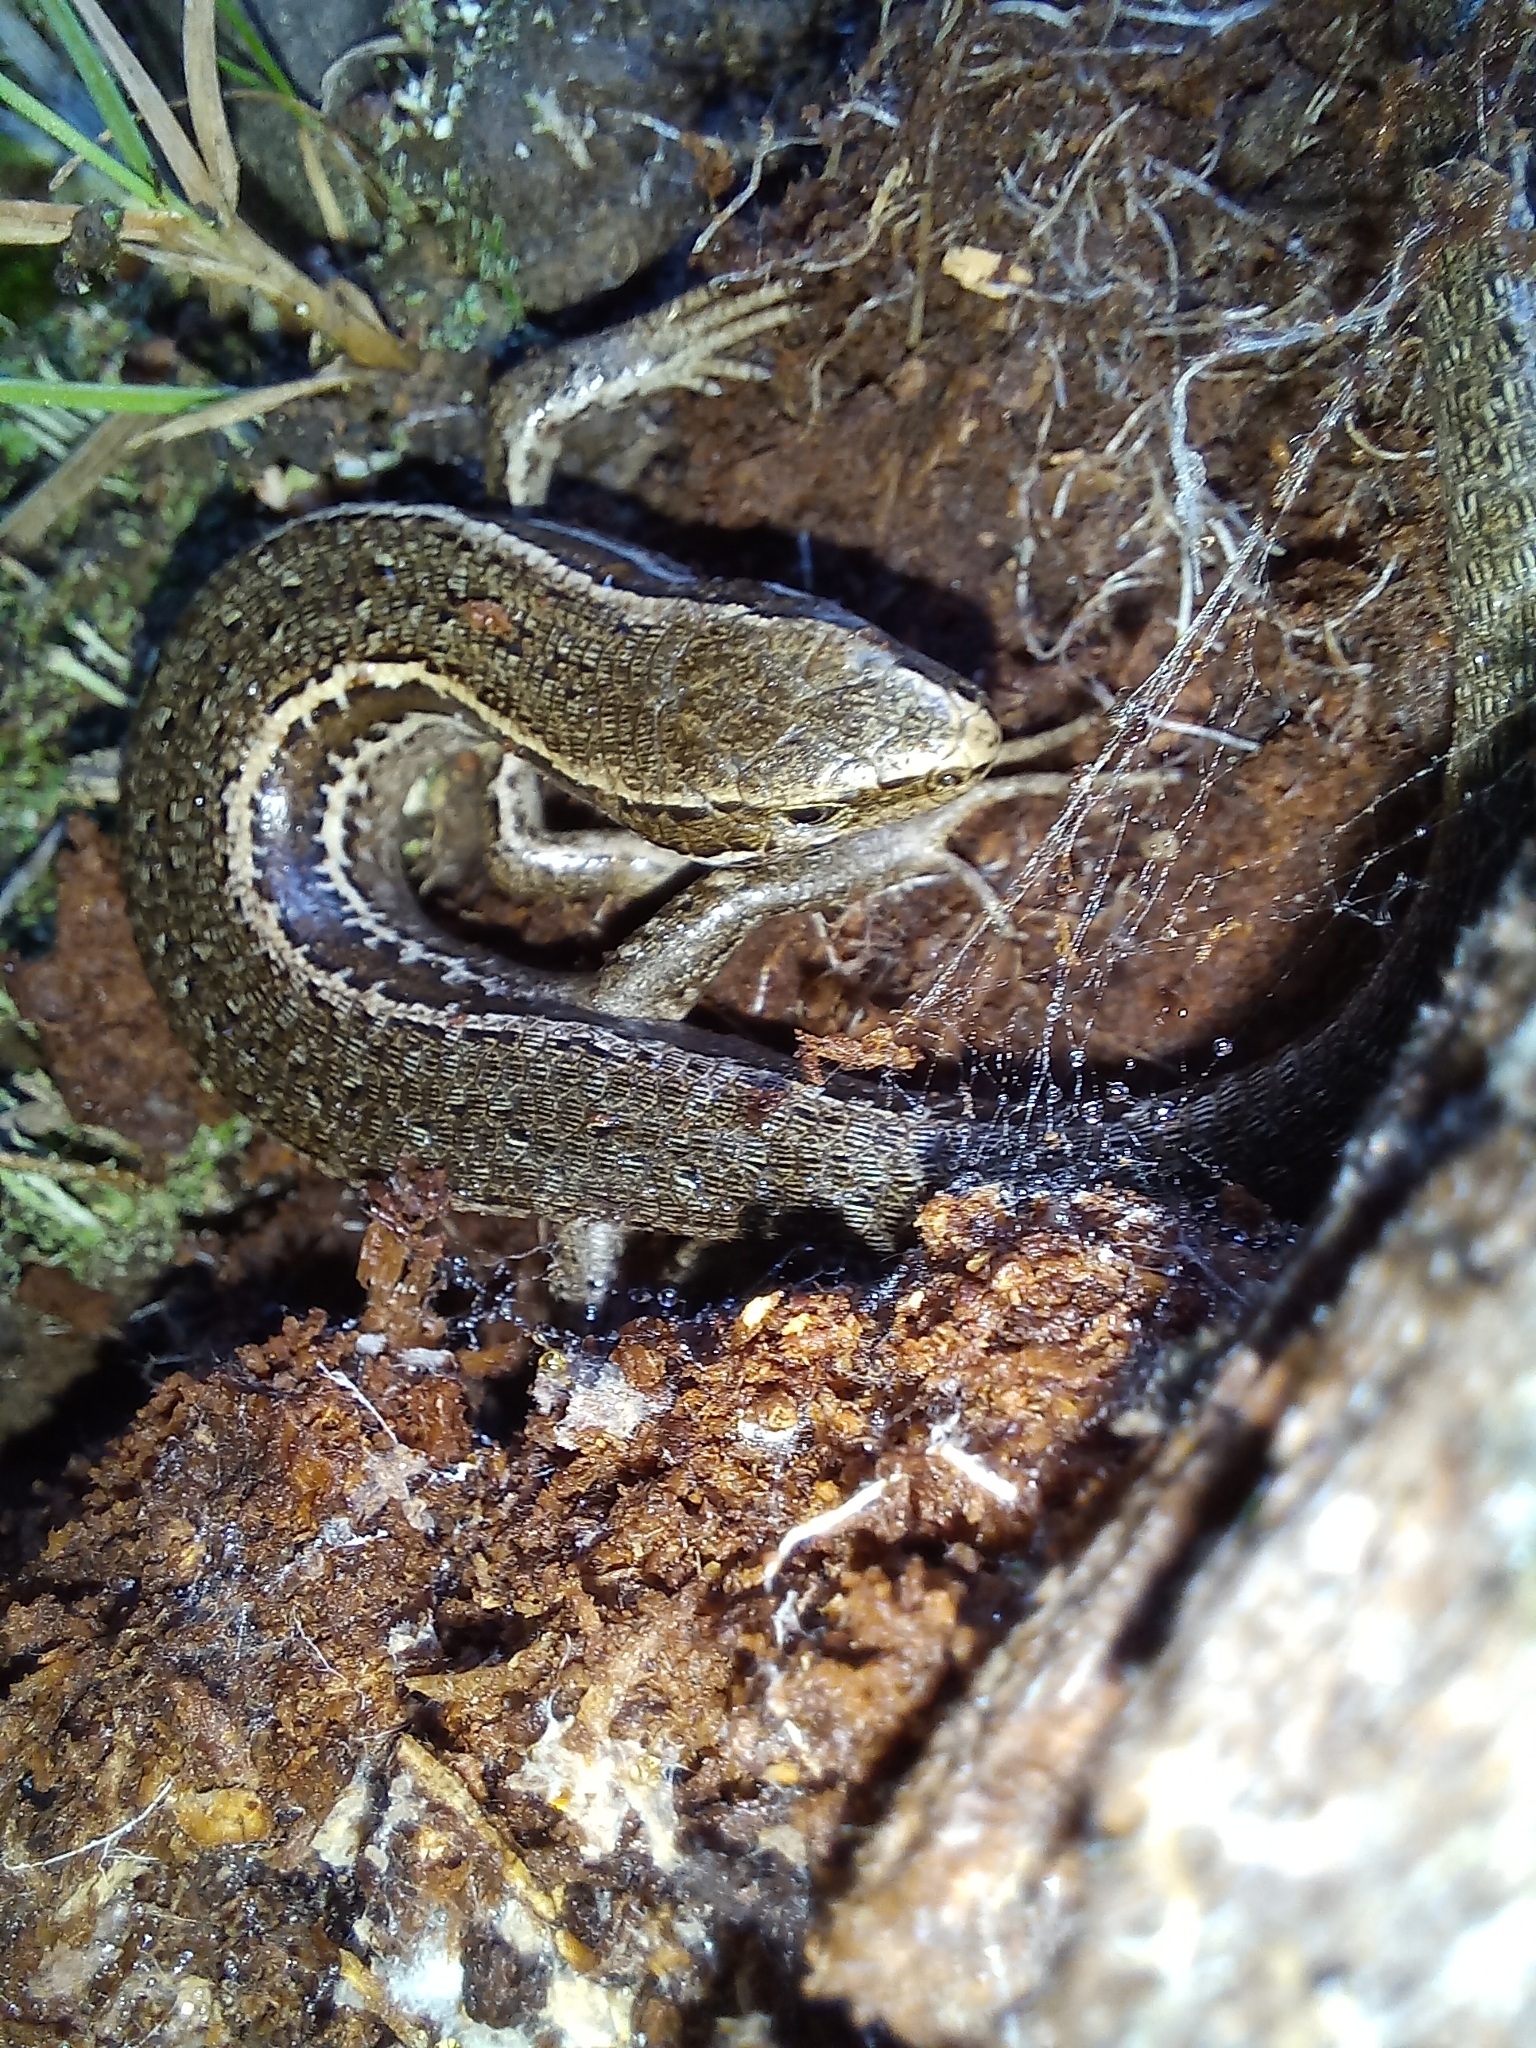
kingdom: Animalia
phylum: Chordata
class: Squamata
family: Scincidae
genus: Oligosoma
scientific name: Oligosoma polychroma
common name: Common new zealand skink
